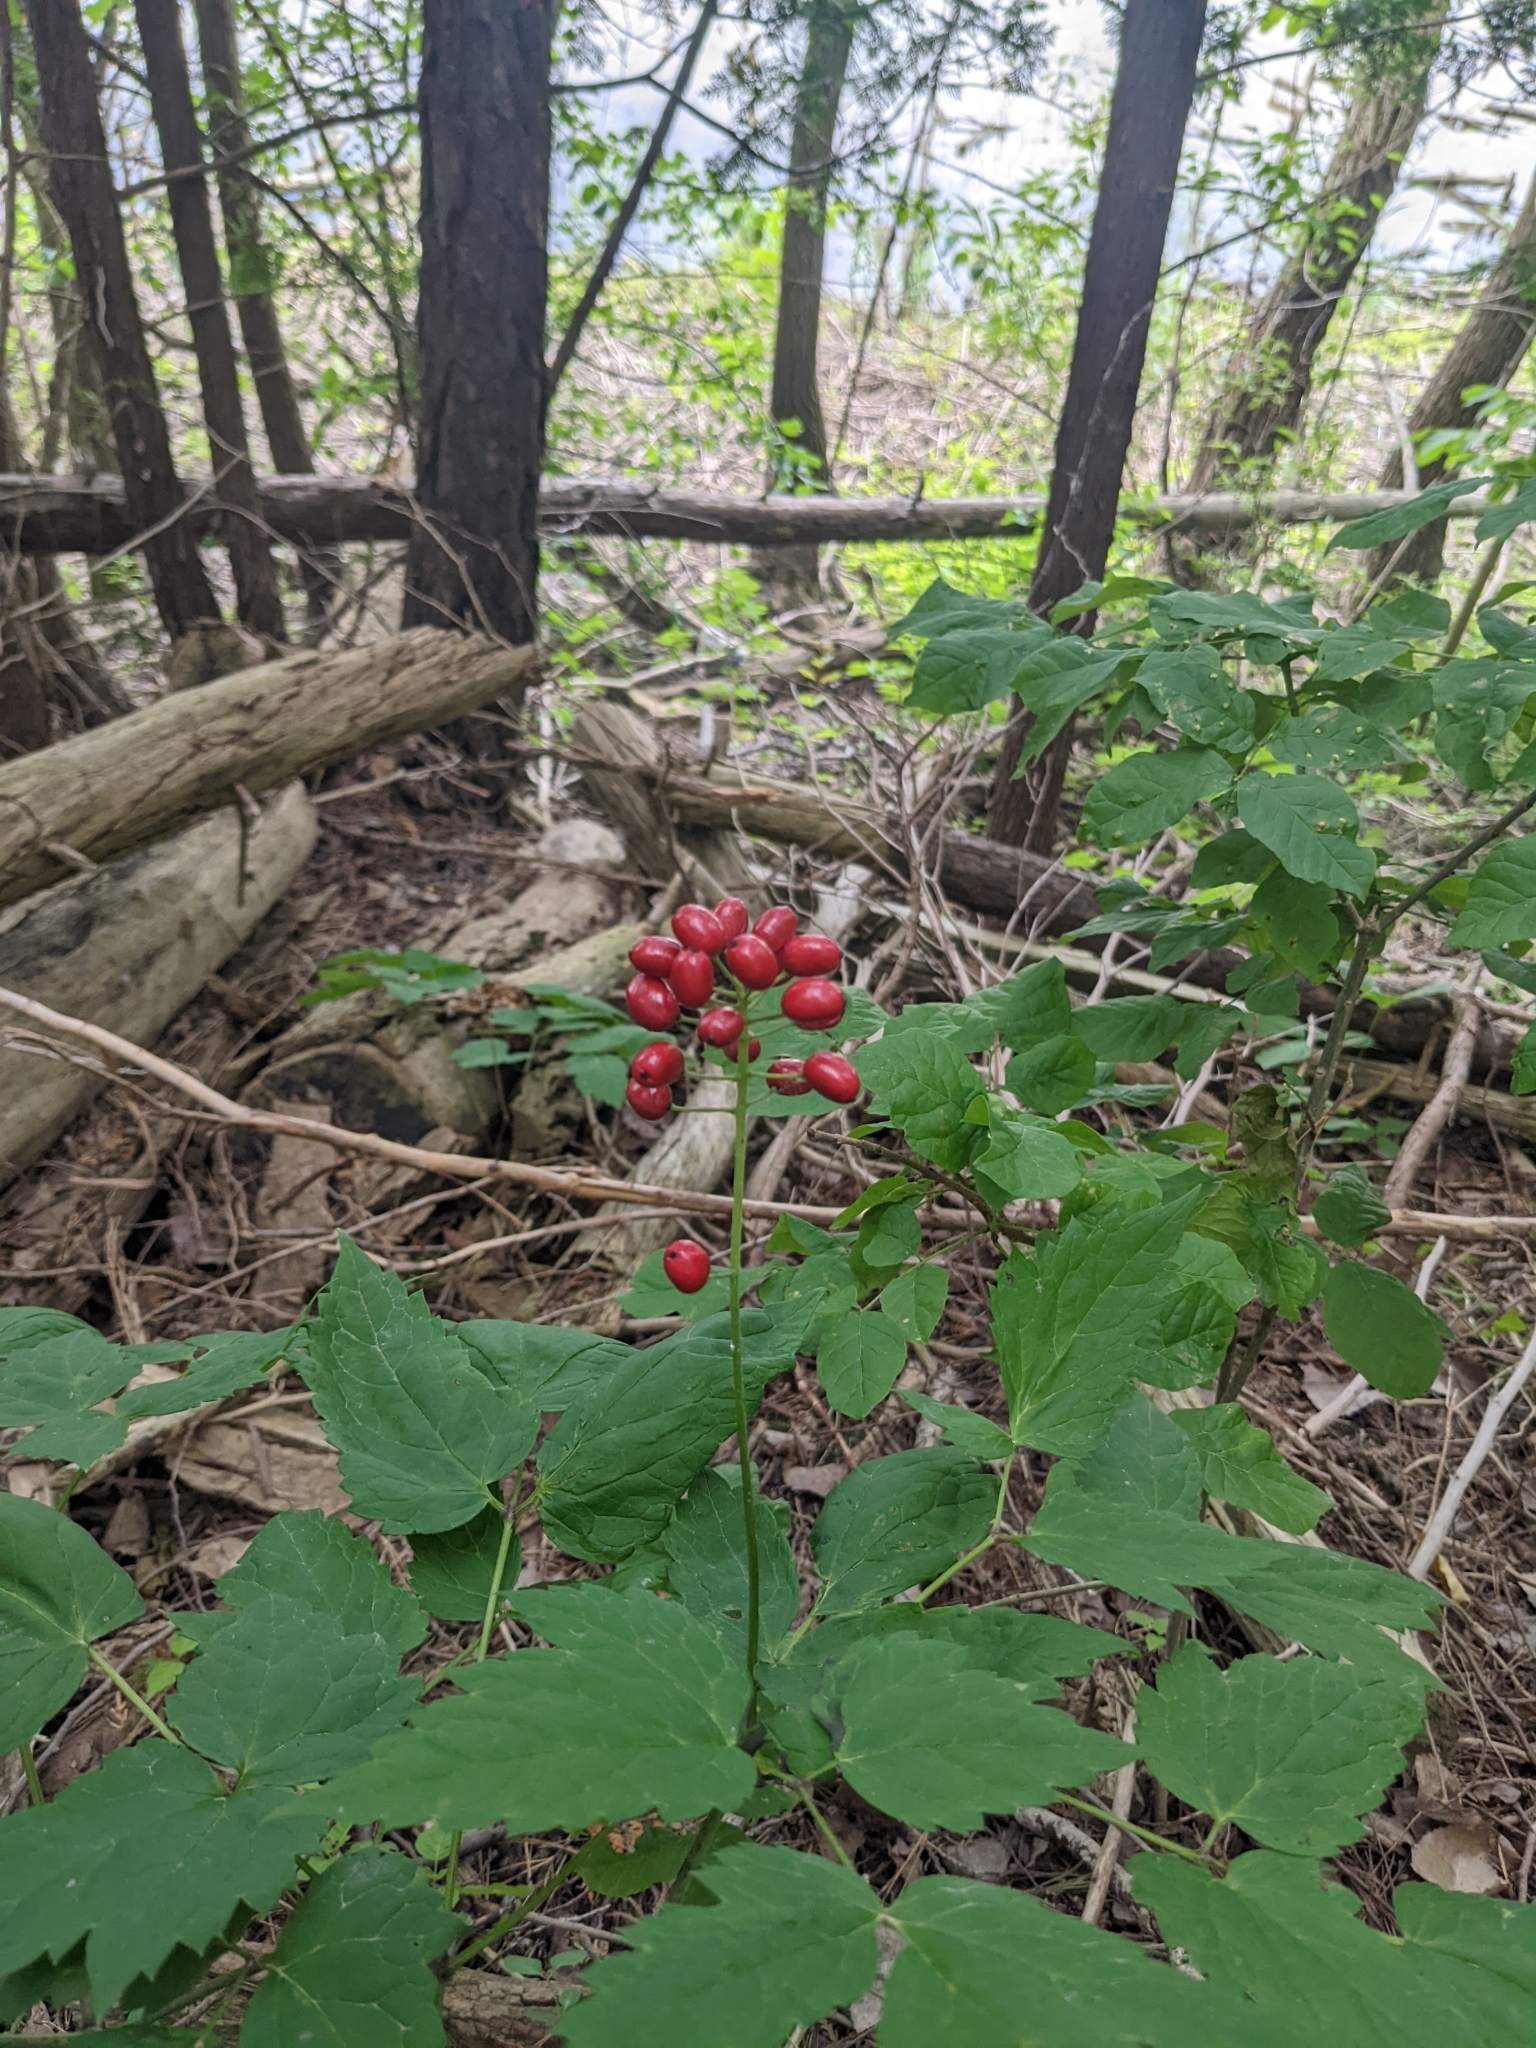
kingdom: Plantae
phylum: Tracheophyta
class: Magnoliopsida
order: Ranunculales
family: Ranunculaceae
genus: Actaea
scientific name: Actaea rubra
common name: Red baneberry
